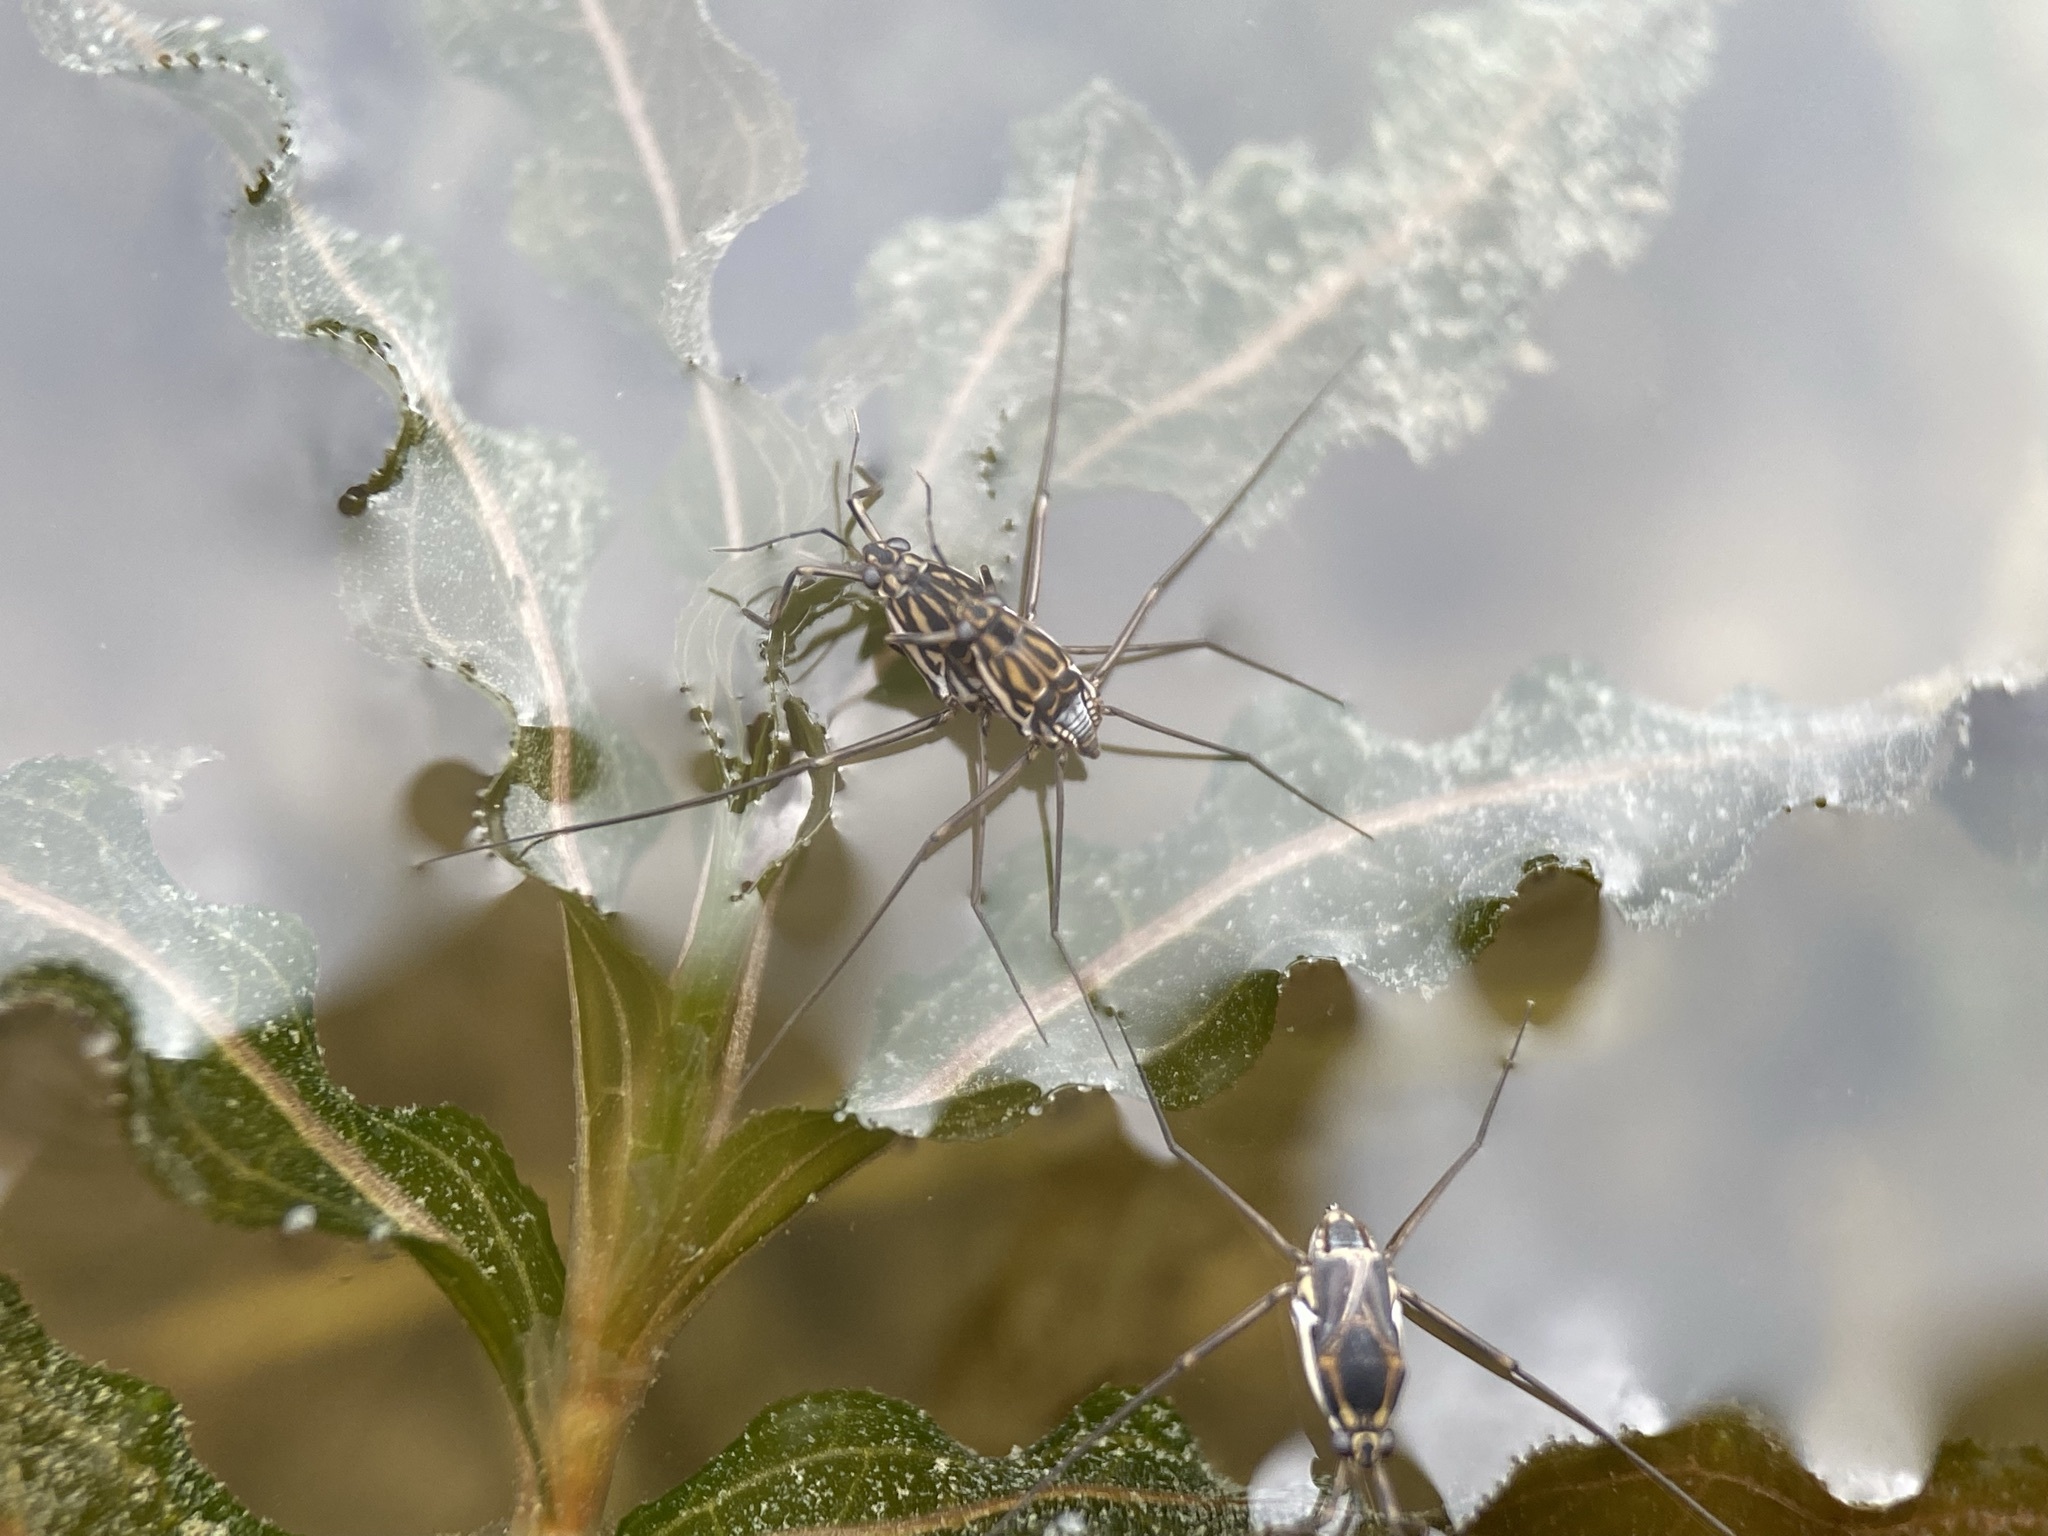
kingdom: Animalia
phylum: Arthropoda
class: Insecta
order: Hemiptera
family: Gerridae
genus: Trepobates
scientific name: Trepobates inermis
